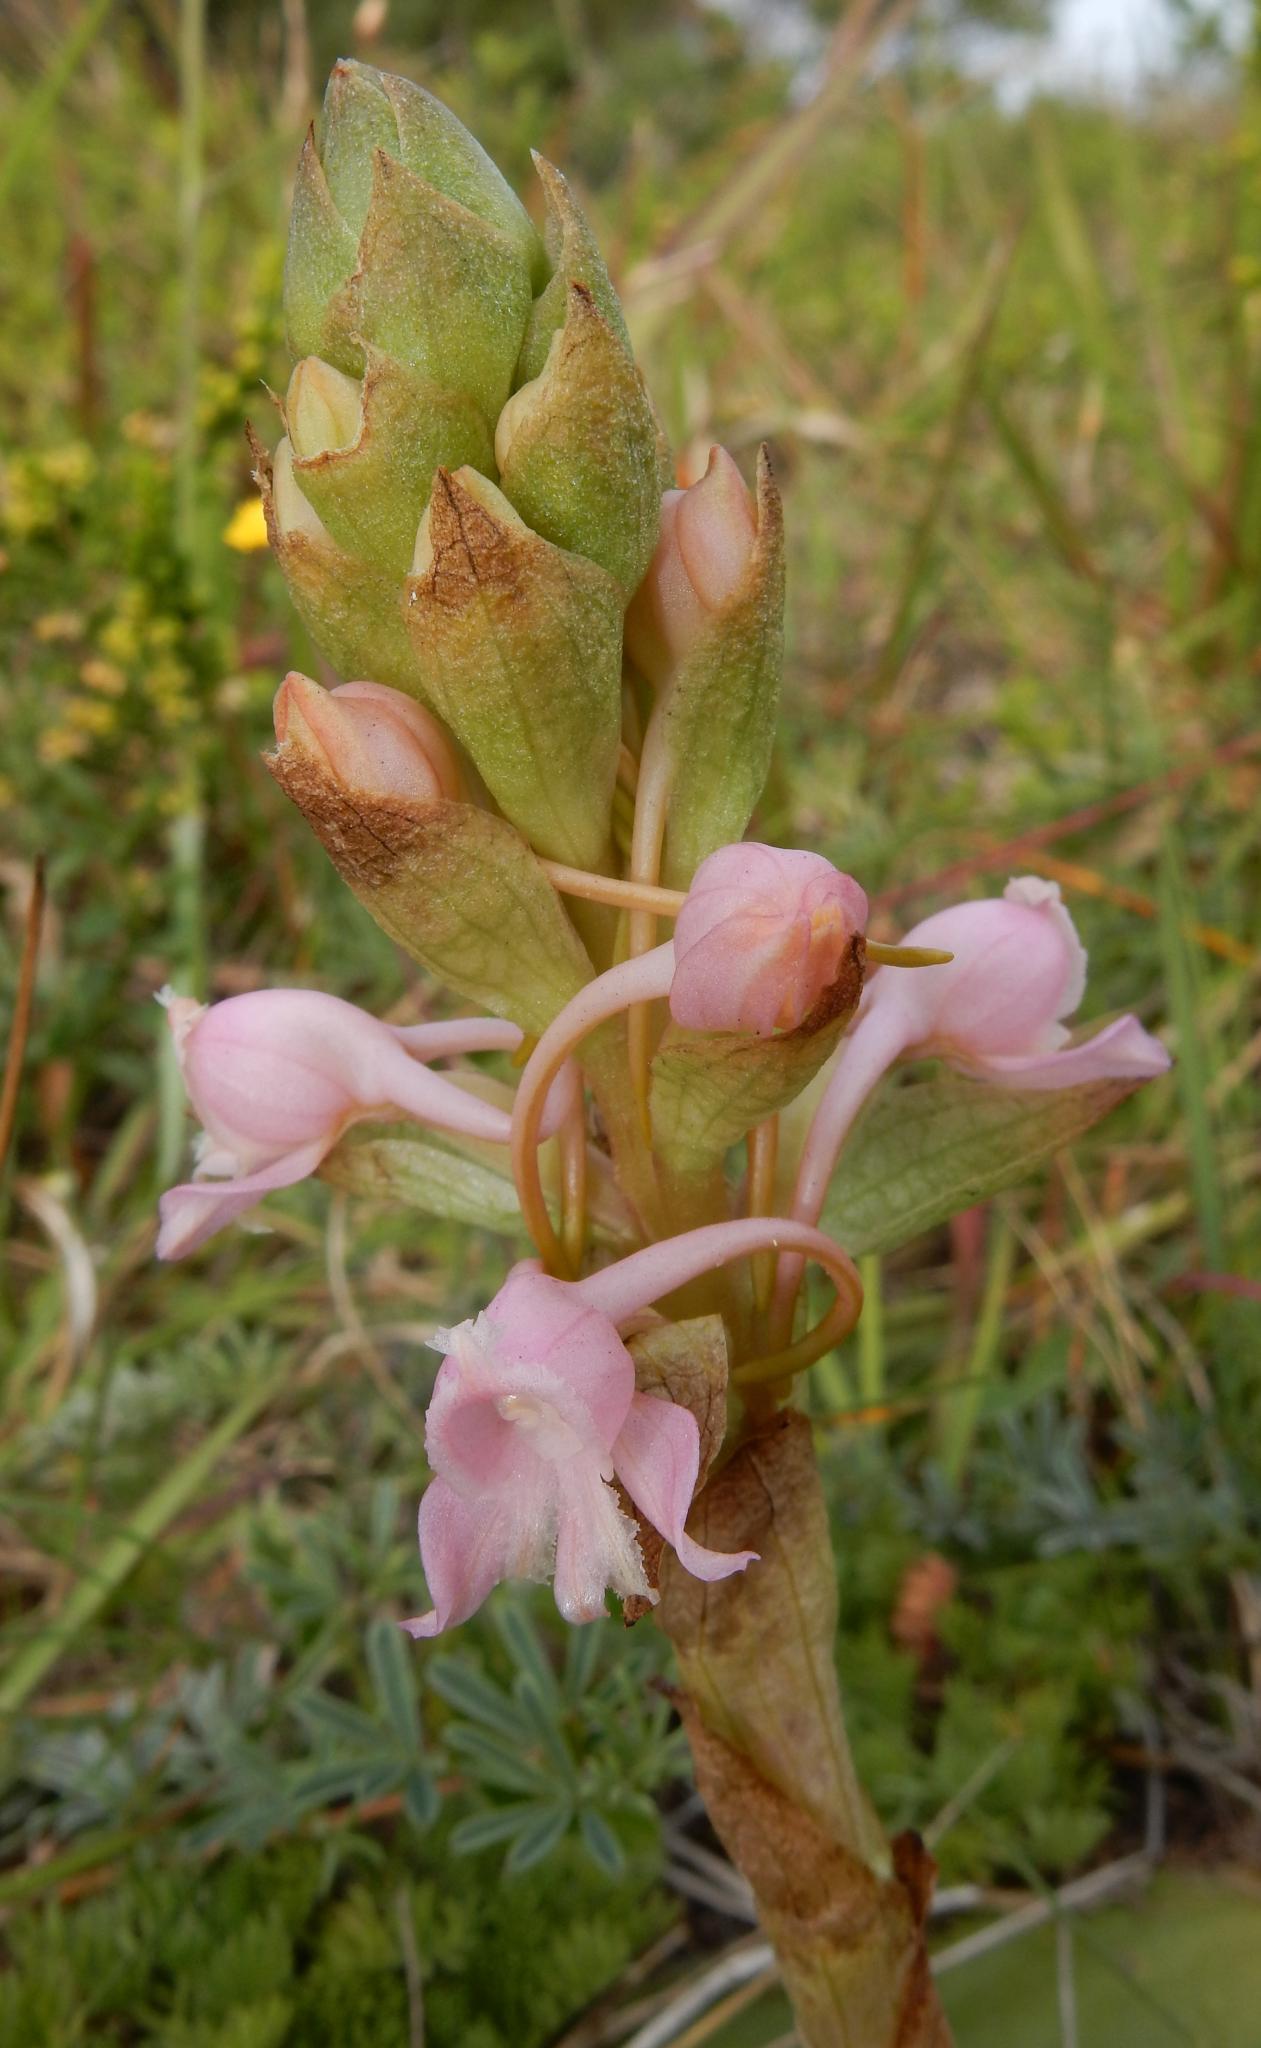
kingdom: Plantae
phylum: Tracheophyta
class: Liliopsida
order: Asparagales
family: Orchidaceae
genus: Satyrium
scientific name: Satyrium membranaceum
